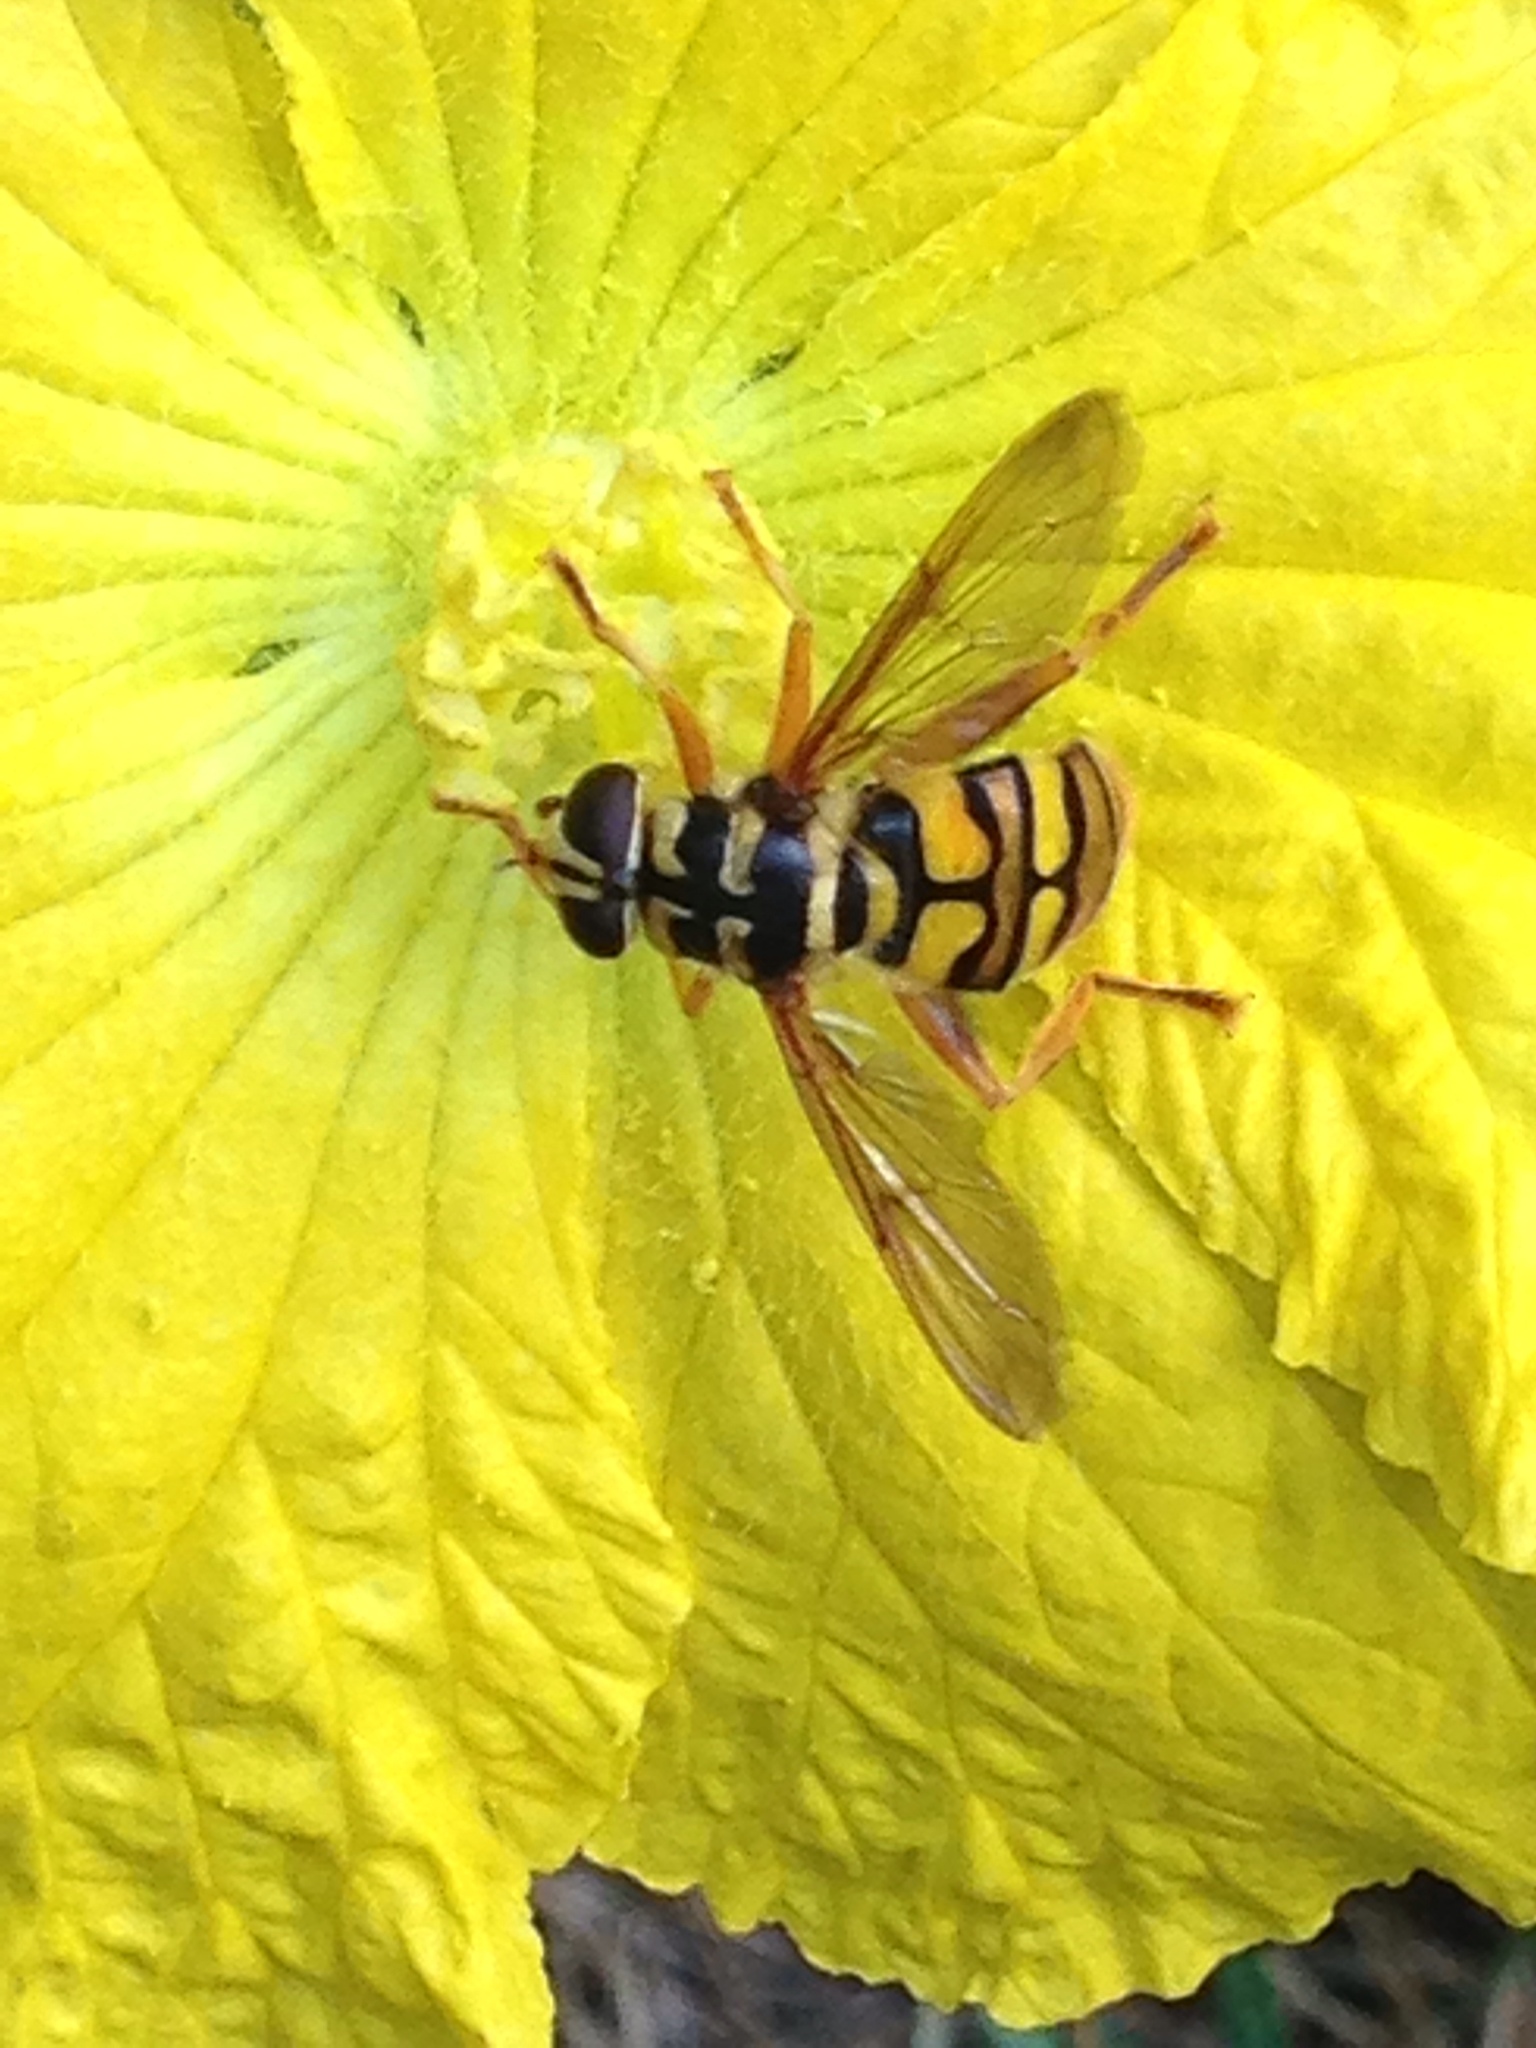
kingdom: Animalia
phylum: Arthropoda
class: Insecta
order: Diptera
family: Syrphidae
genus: Milesia
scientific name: Milesia virginiensis
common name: Virginia giant
